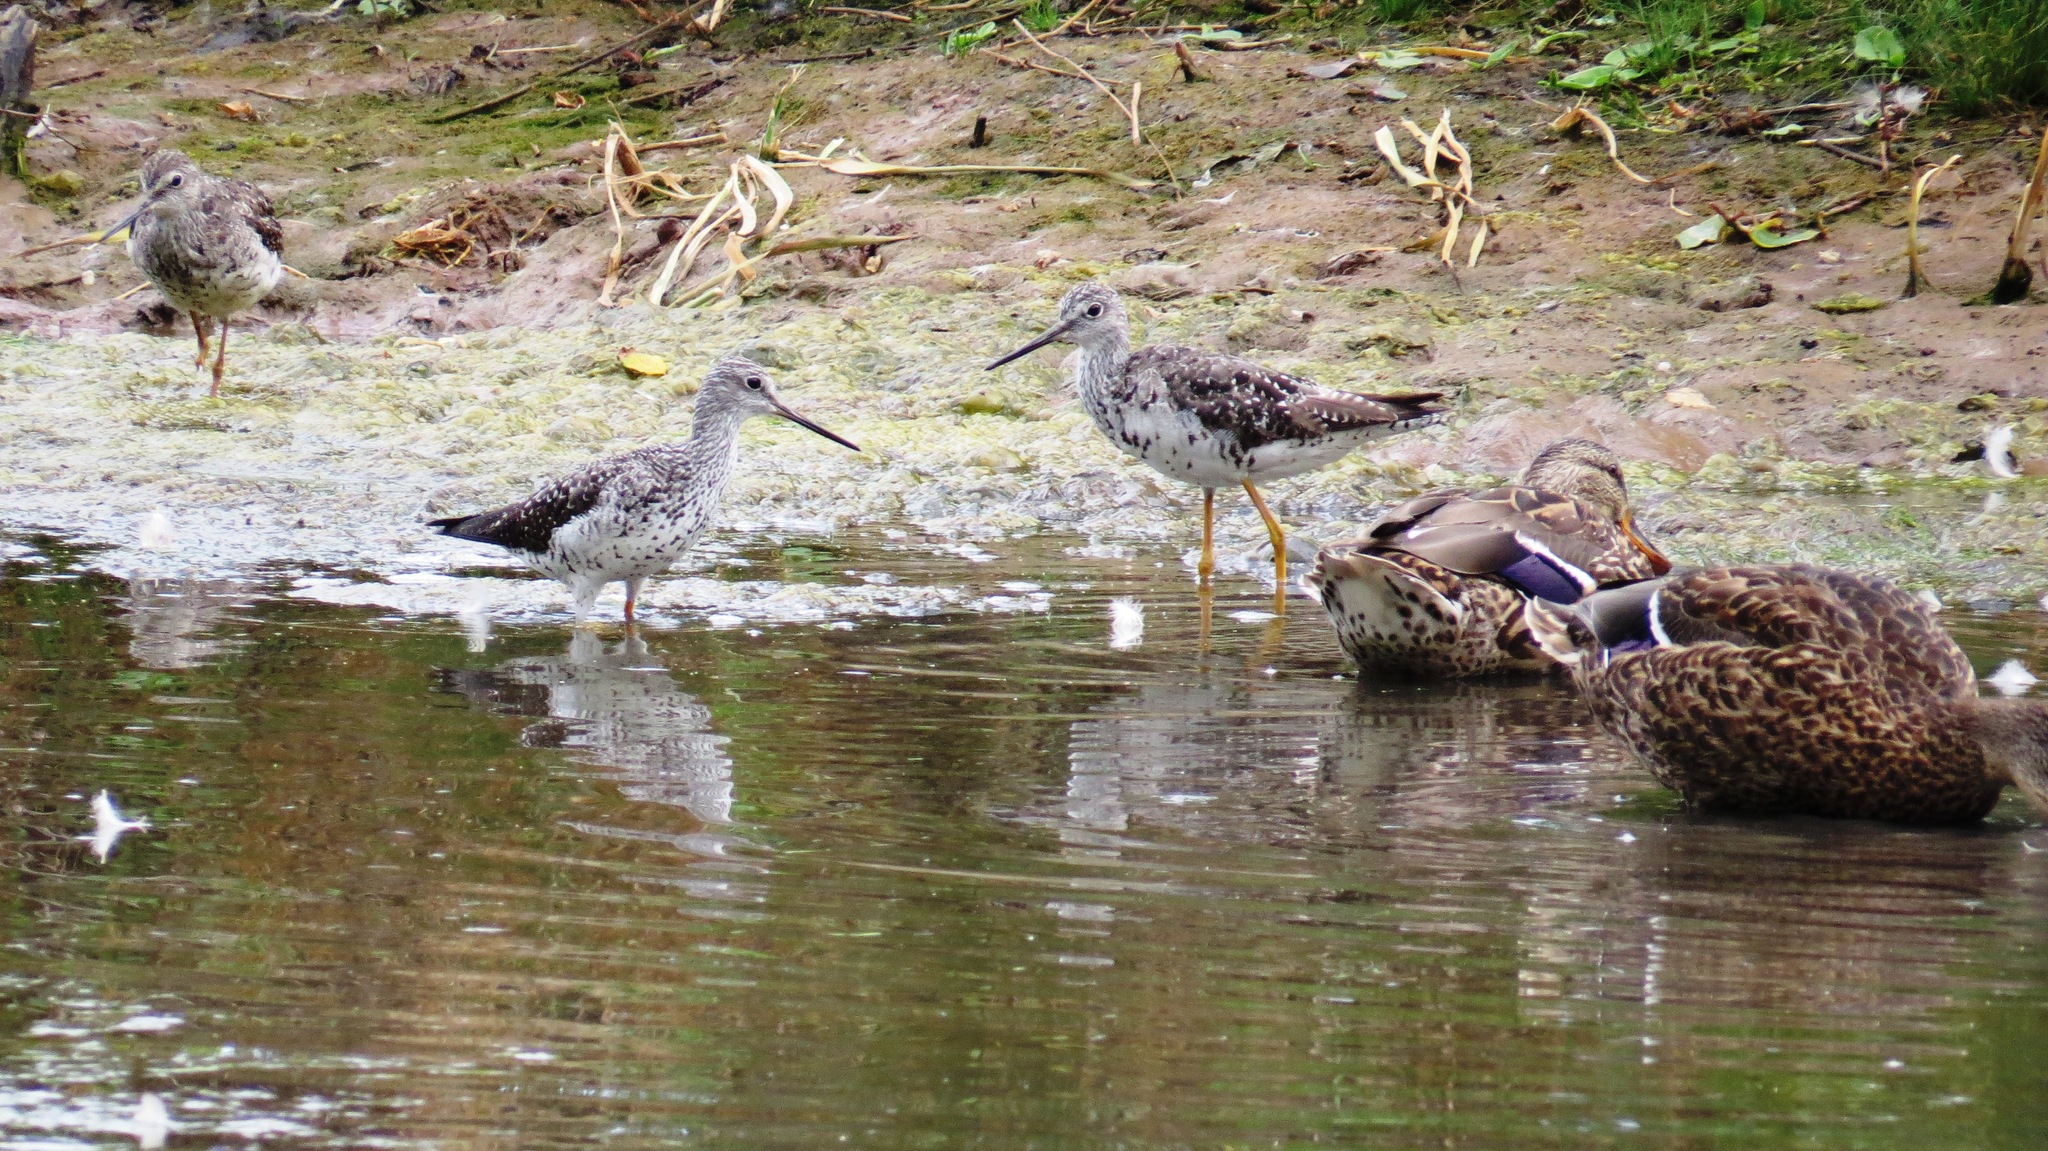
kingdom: Animalia
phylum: Chordata
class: Aves
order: Charadriiformes
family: Scolopacidae
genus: Tringa
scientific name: Tringa melanoleuca
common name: Greater yellowlegs
